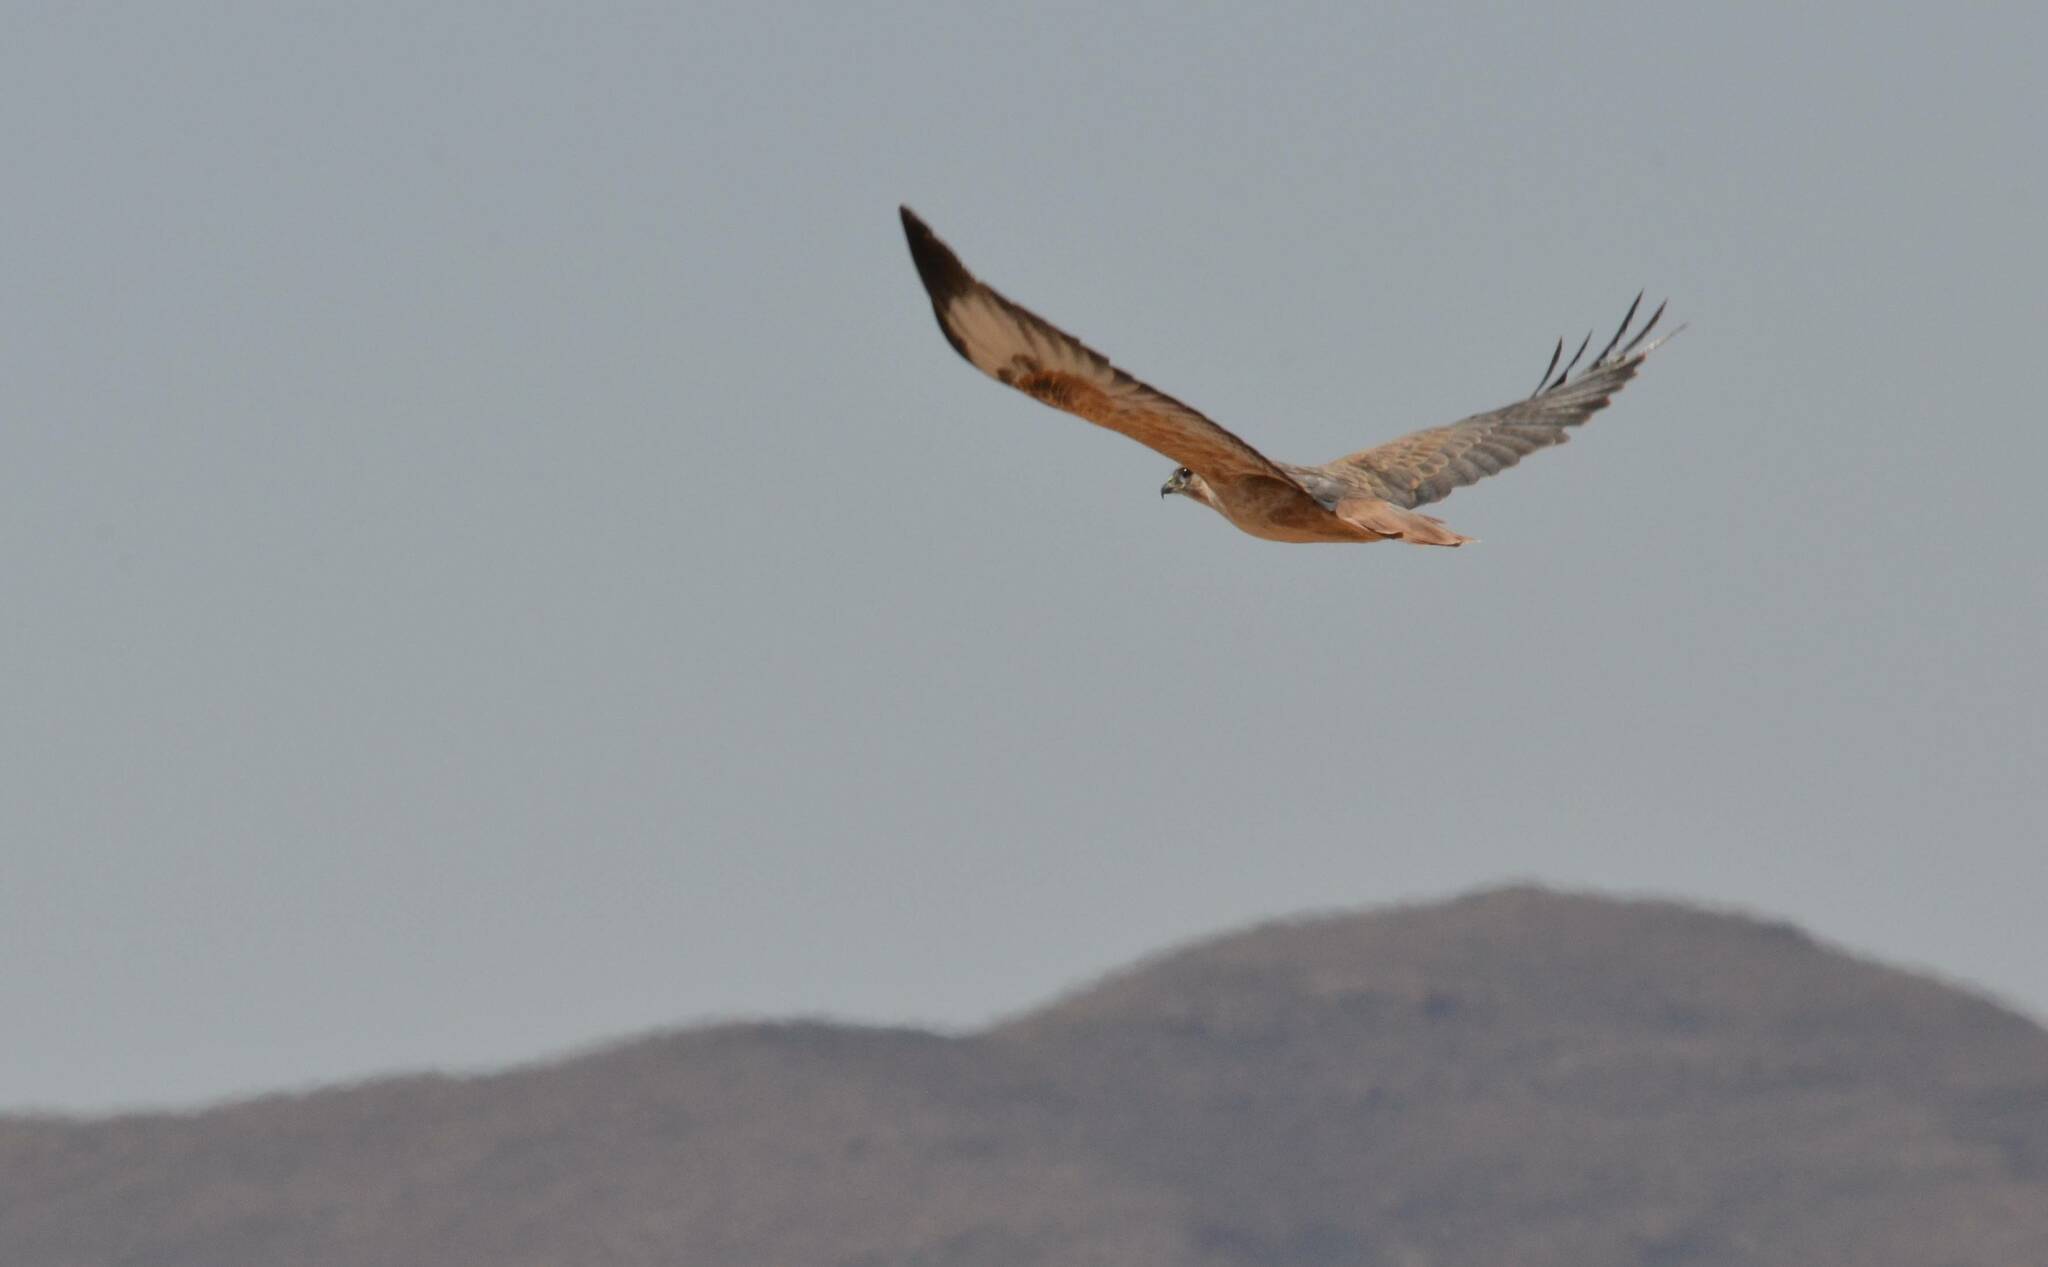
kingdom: Animalia
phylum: Chordata
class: Aves
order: Accipitriformes
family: Accipitridae
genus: Buteo
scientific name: Buteo rufinus
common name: Long-legged buzzard
